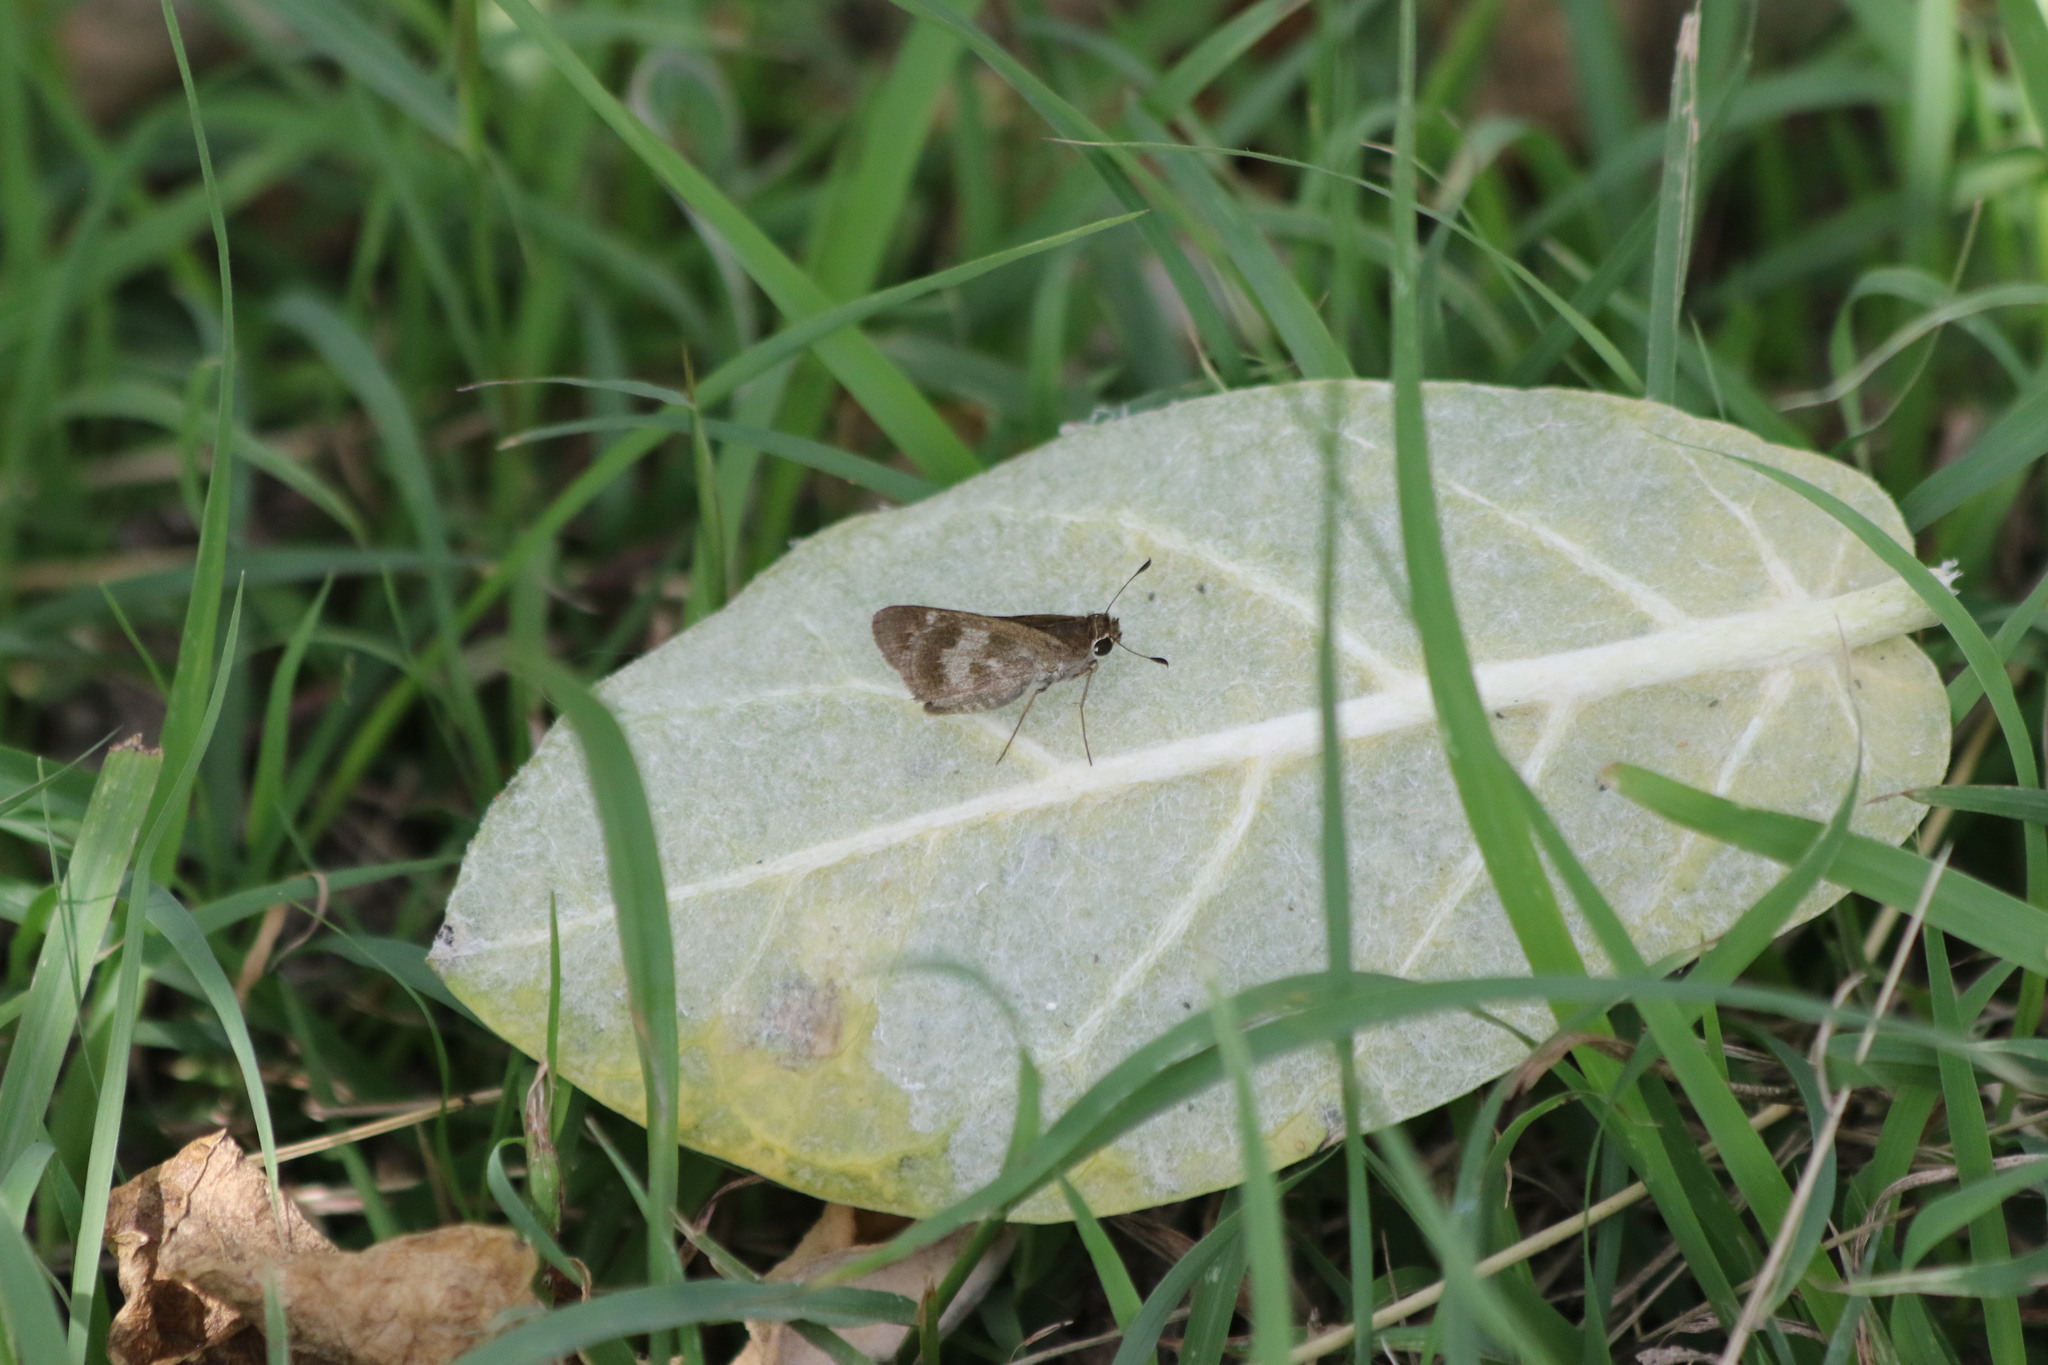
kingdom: Animalia
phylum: Arthropoda
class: Insecta
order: Lepidoptera
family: Hesperiidae
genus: Polites
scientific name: Polites vibex
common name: Whirlabout
